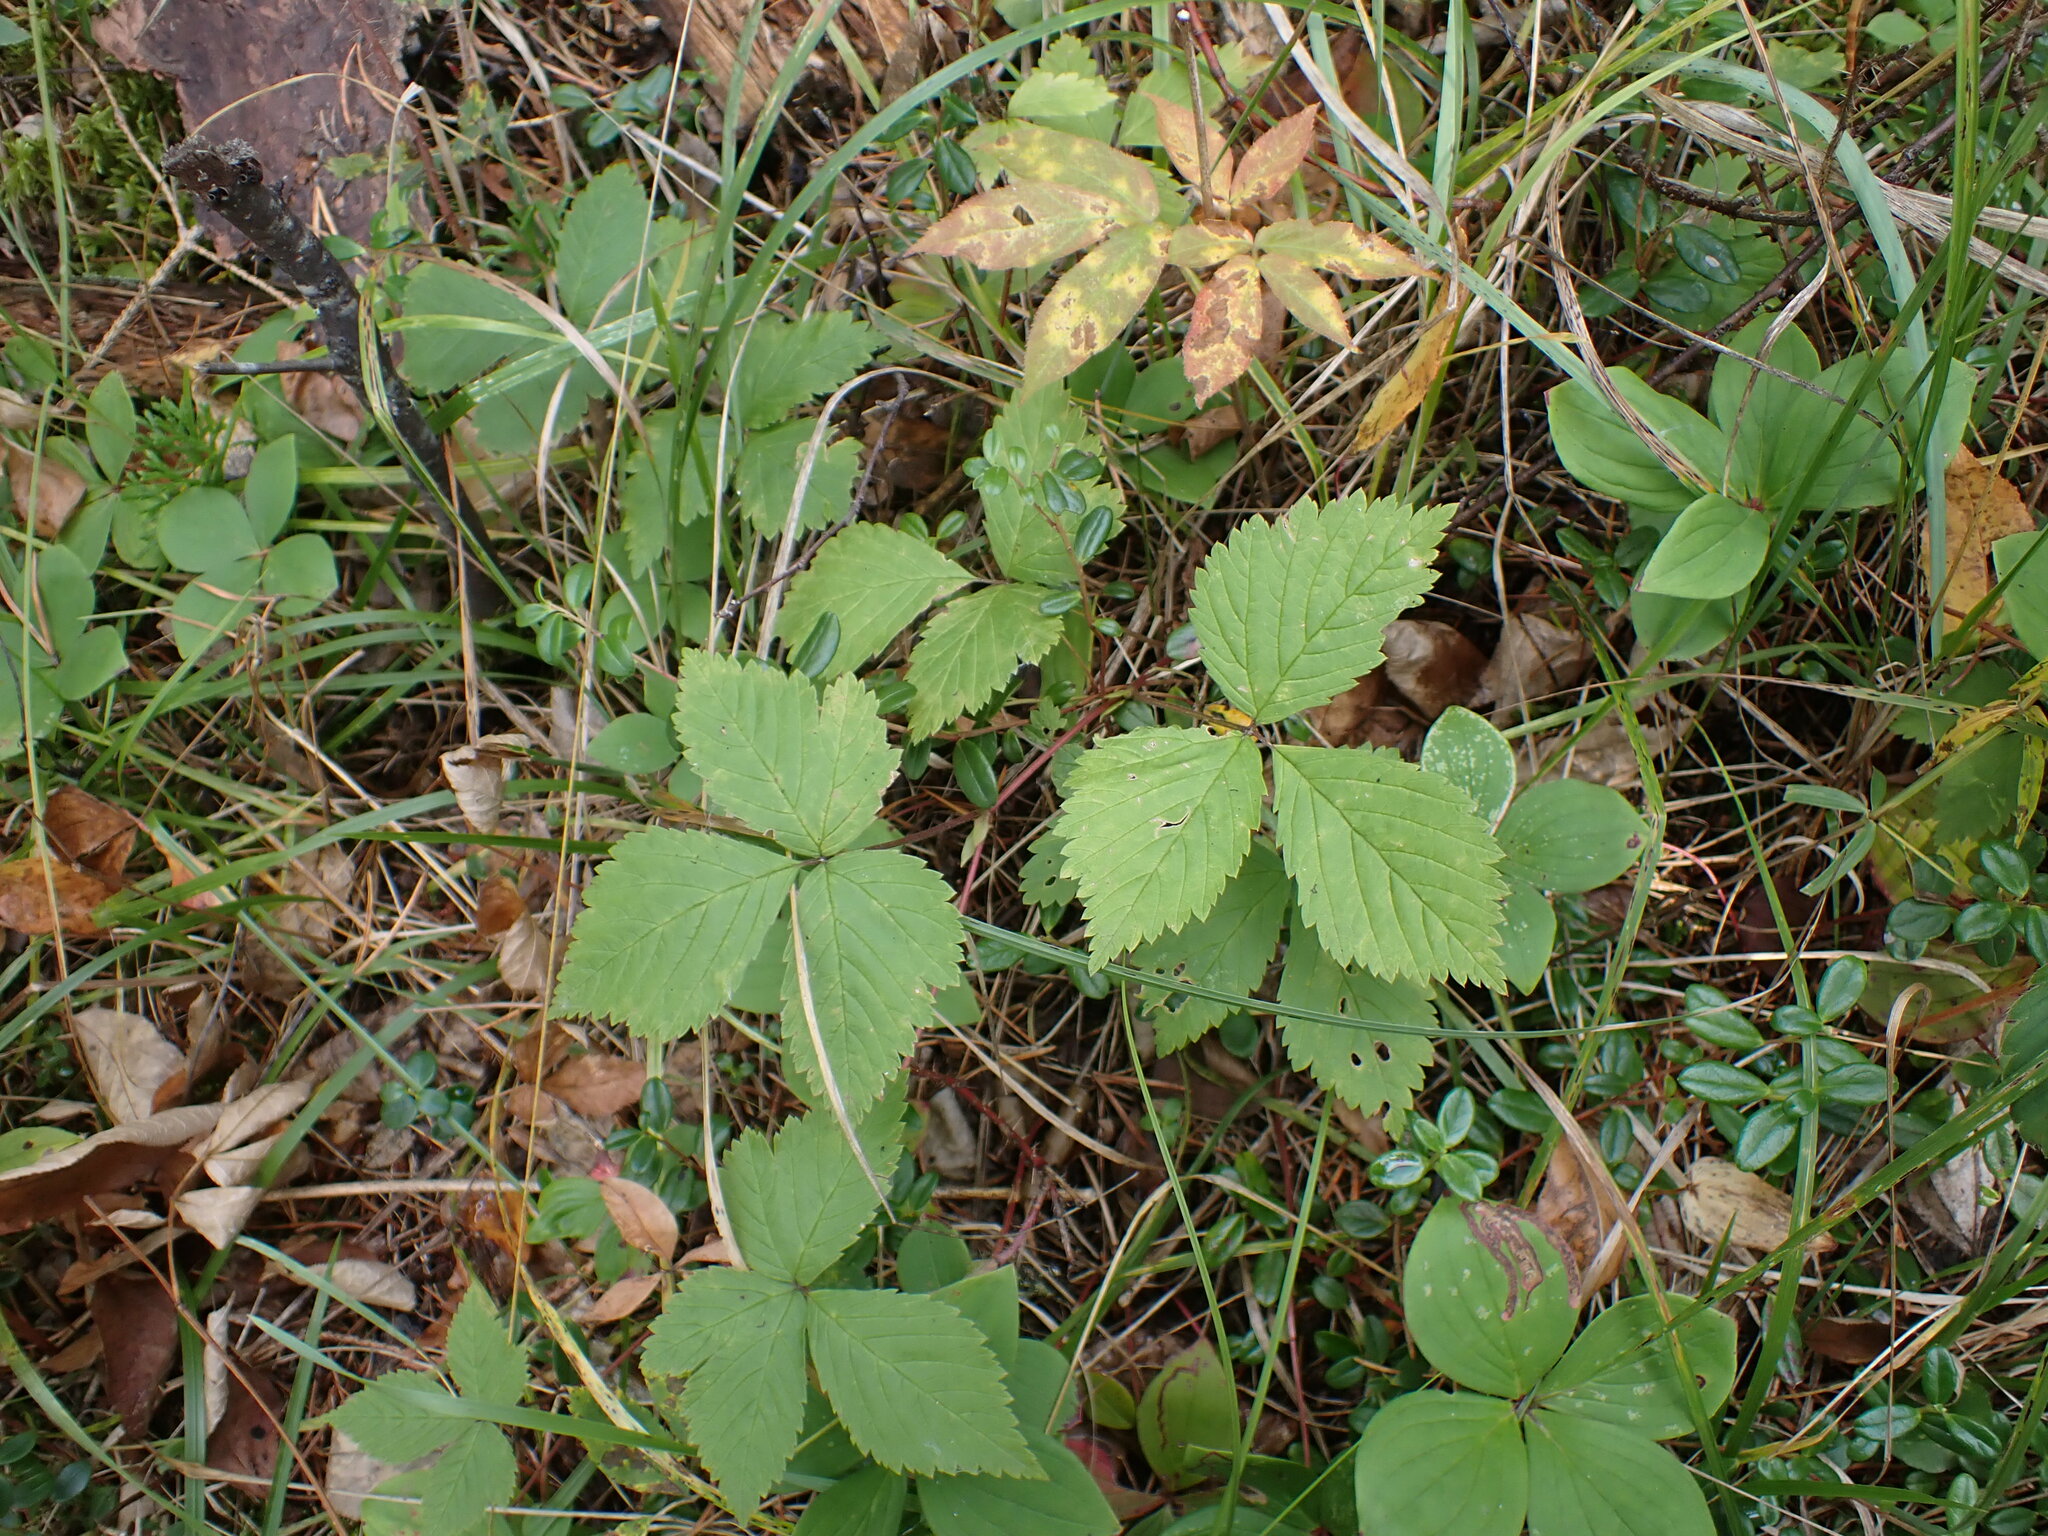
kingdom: Plantae
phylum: Tracheophyta
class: Magnoliopsida
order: Rosales
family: Rosaceae
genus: Rubus
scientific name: Rubus pubescens
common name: Dwarf raspberry
